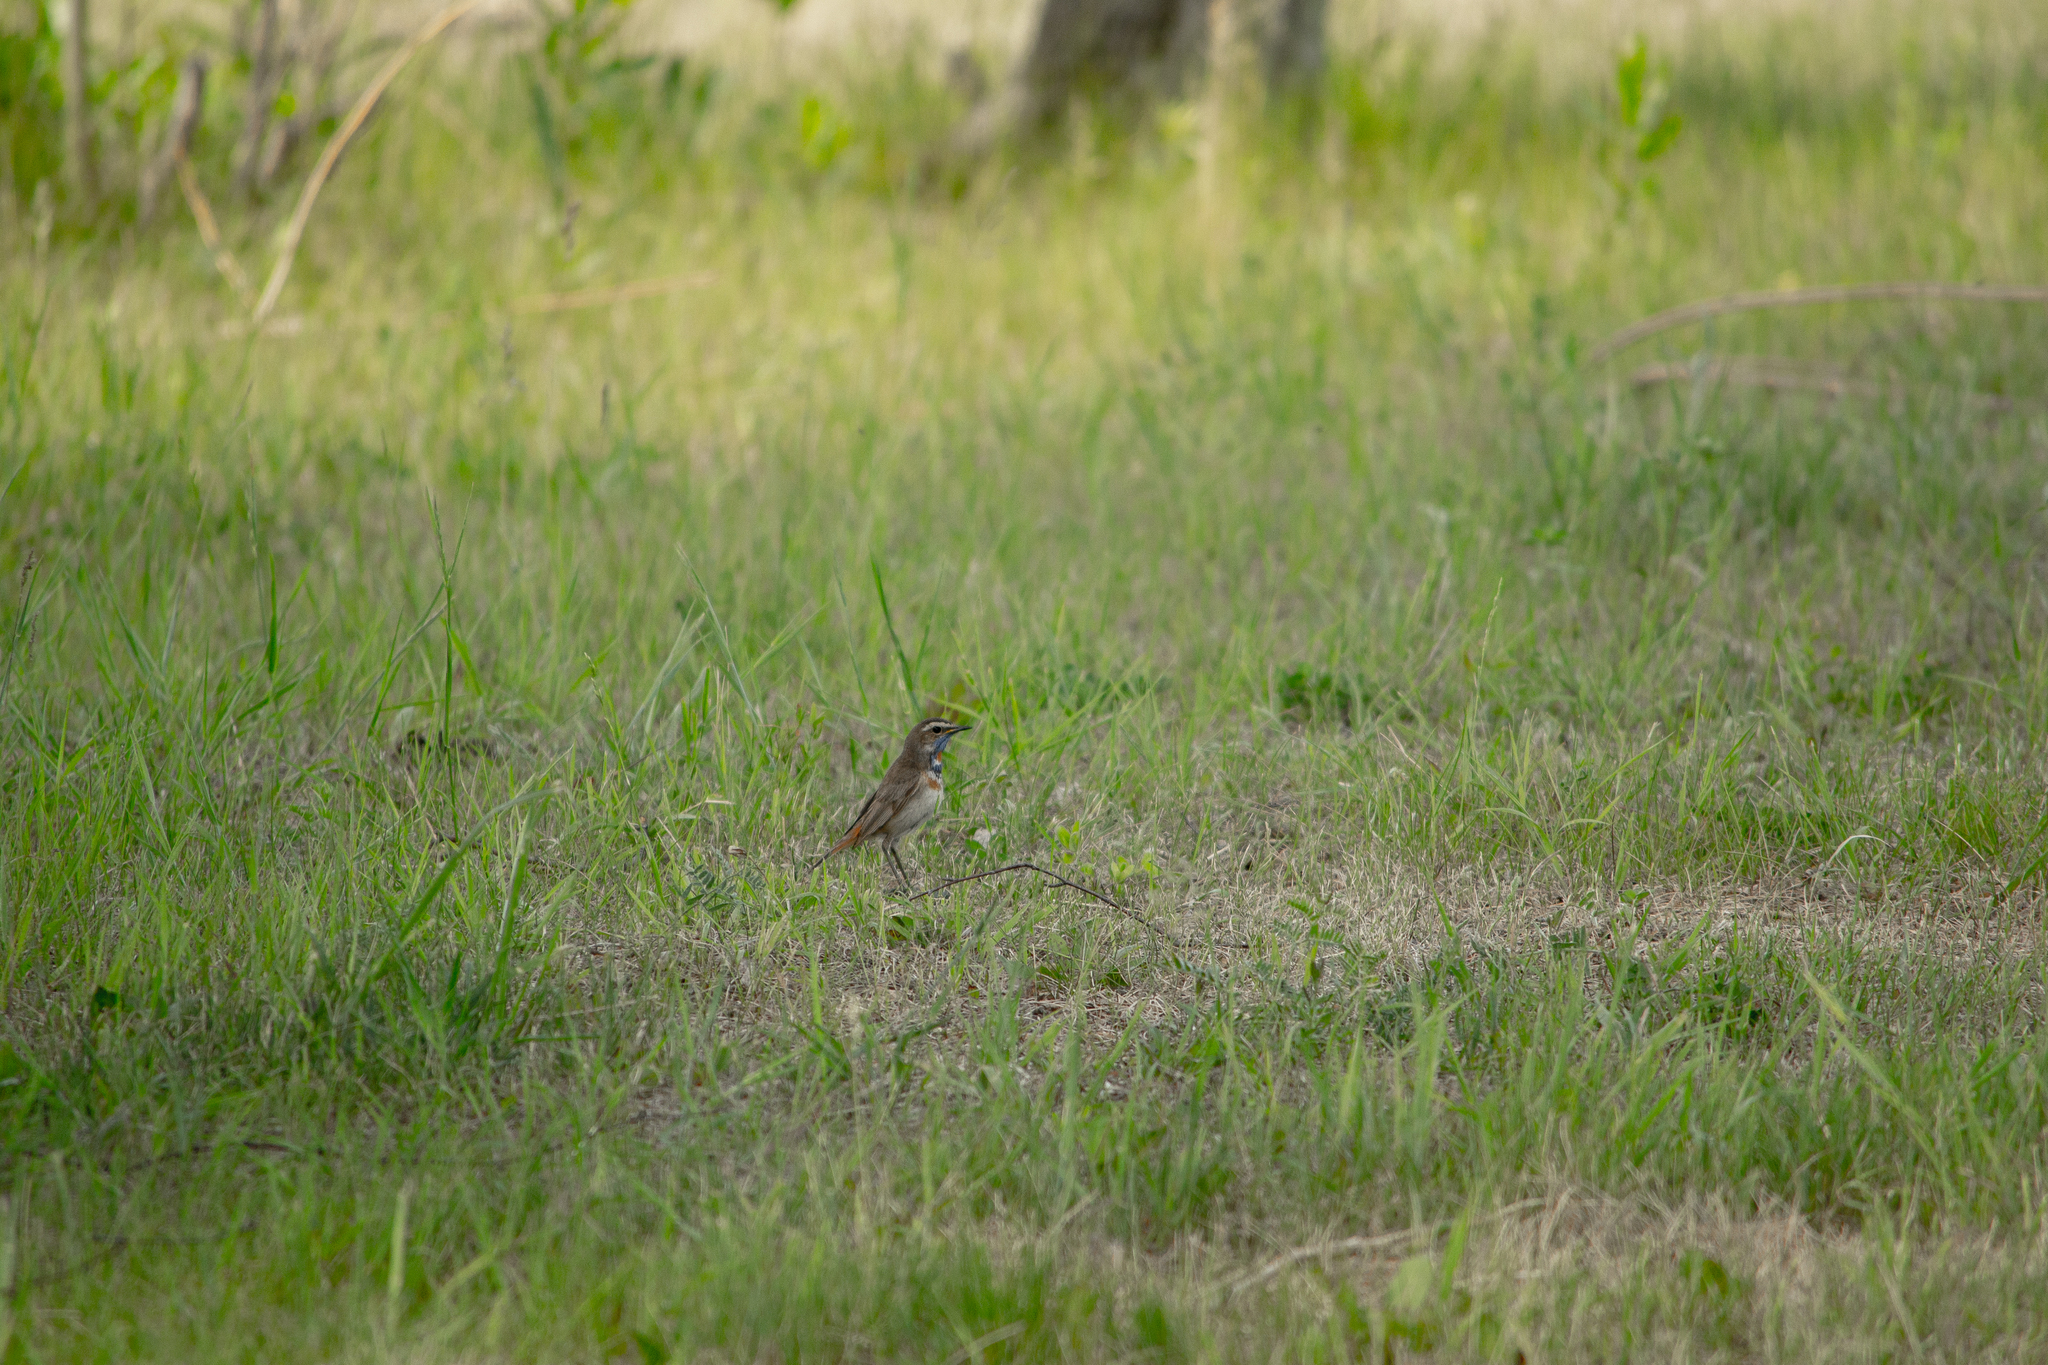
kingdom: Animalia
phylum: Chordata
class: Aves
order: Passeriformes
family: Muscicapidae
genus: Luscinia
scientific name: Luscinia svecica
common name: Bluethroat
